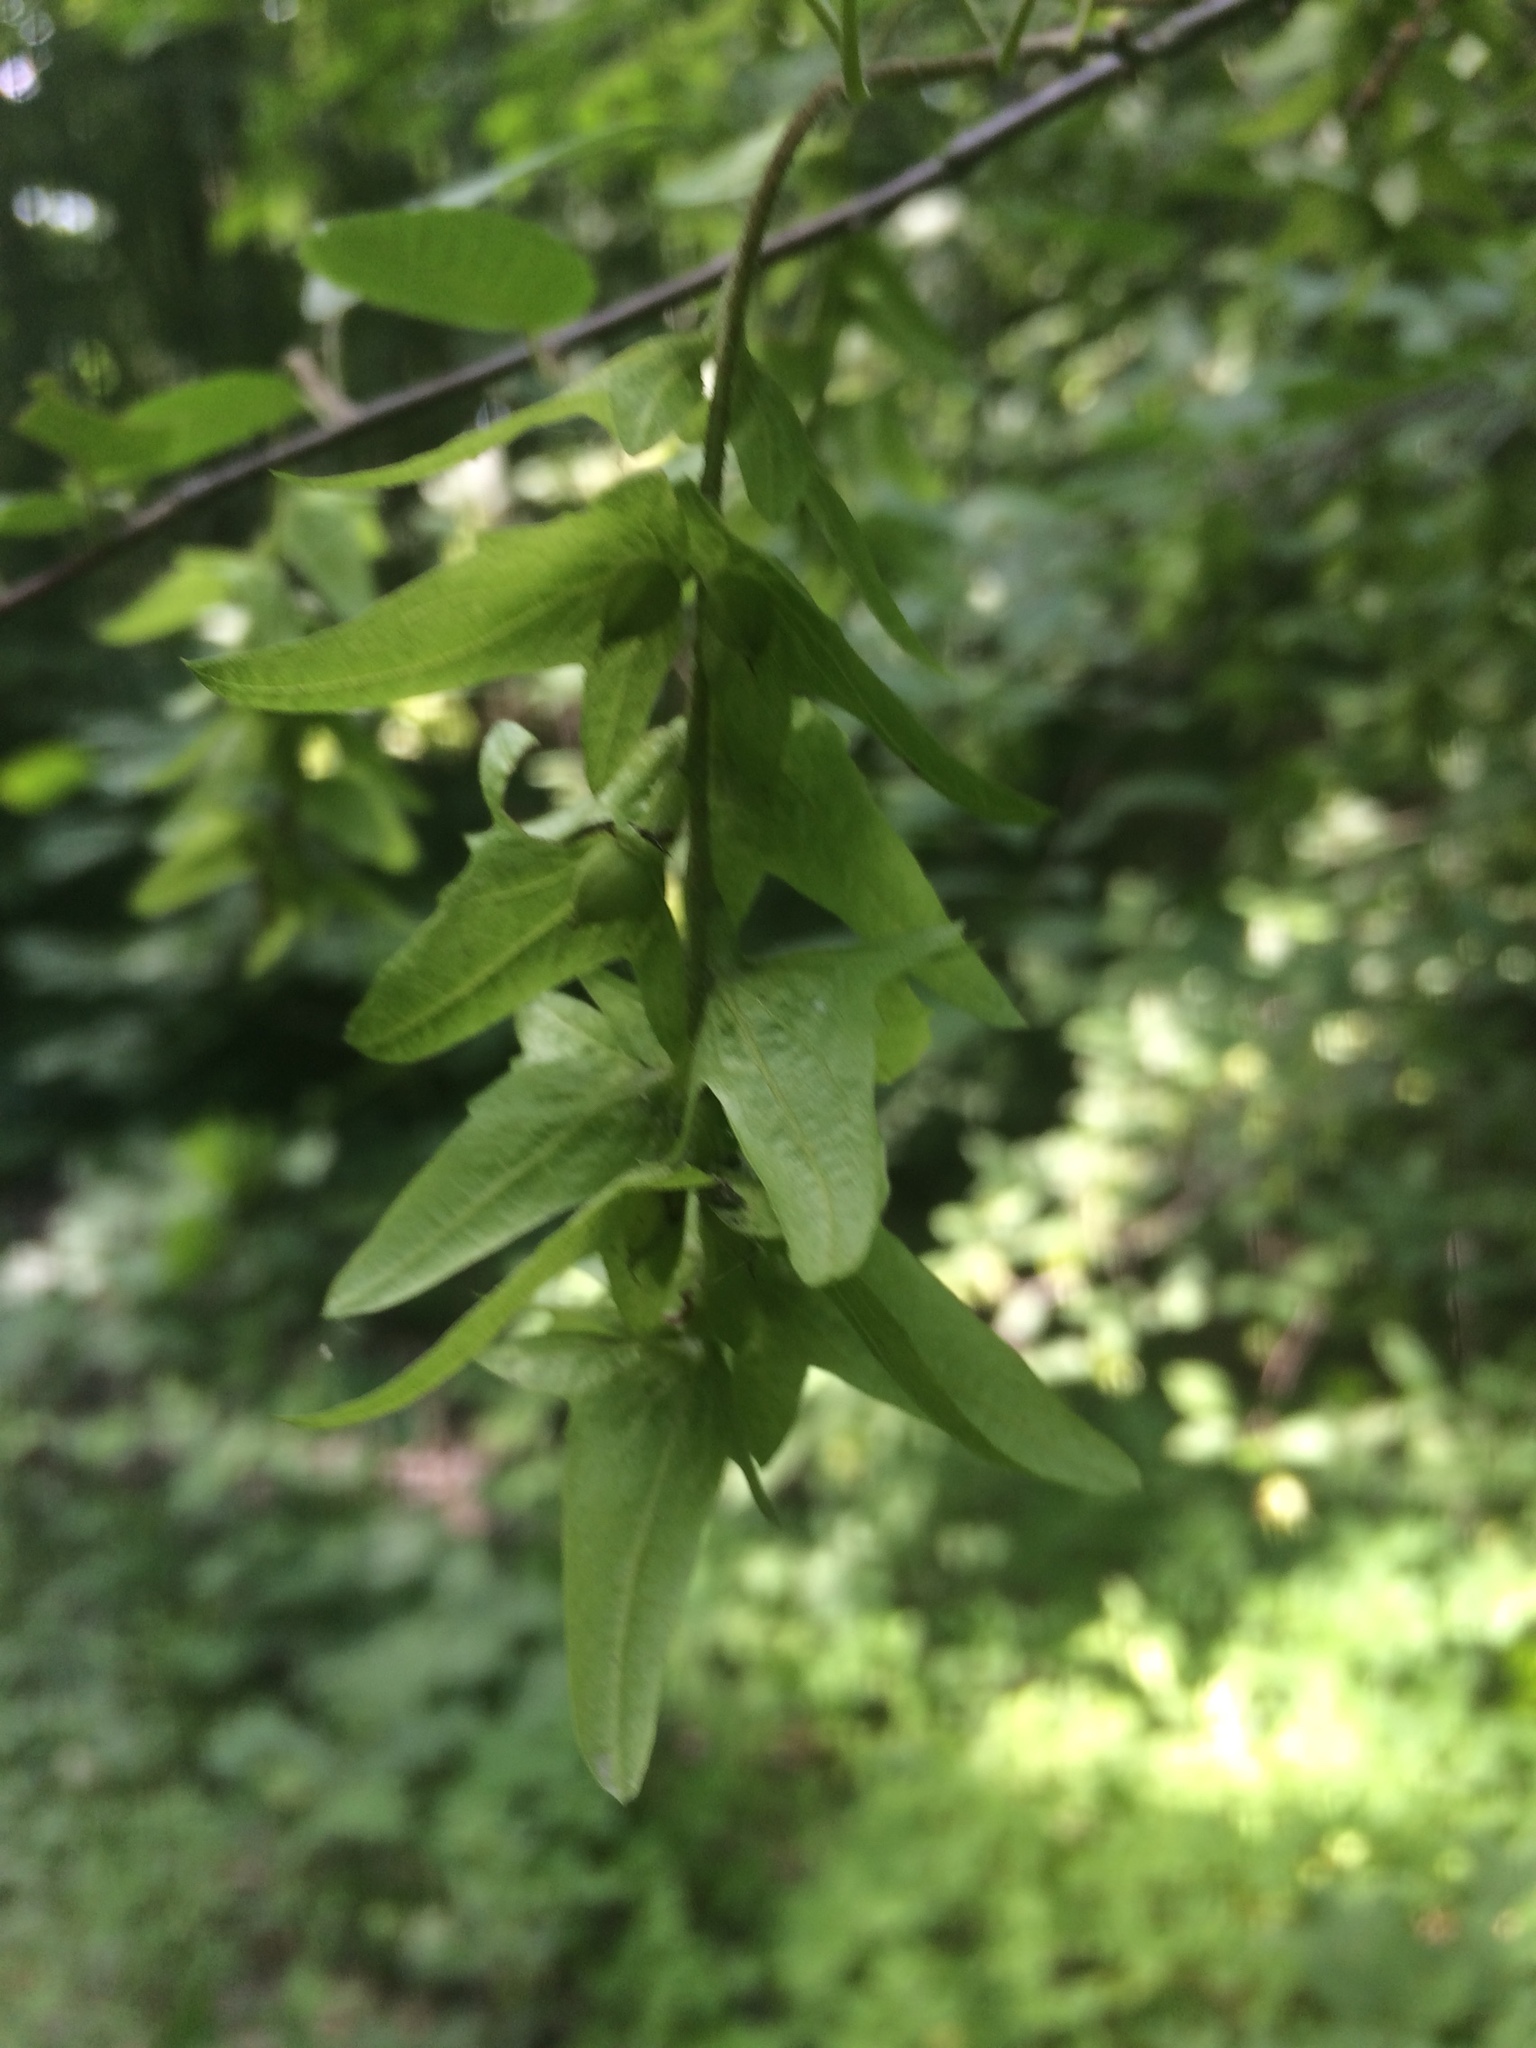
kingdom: Plantae
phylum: Tracheophyta
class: Magnoliopsida
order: Fagales
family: Betulaceae
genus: Carpinus
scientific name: Carpinus caroliniana
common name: American hornbeam
